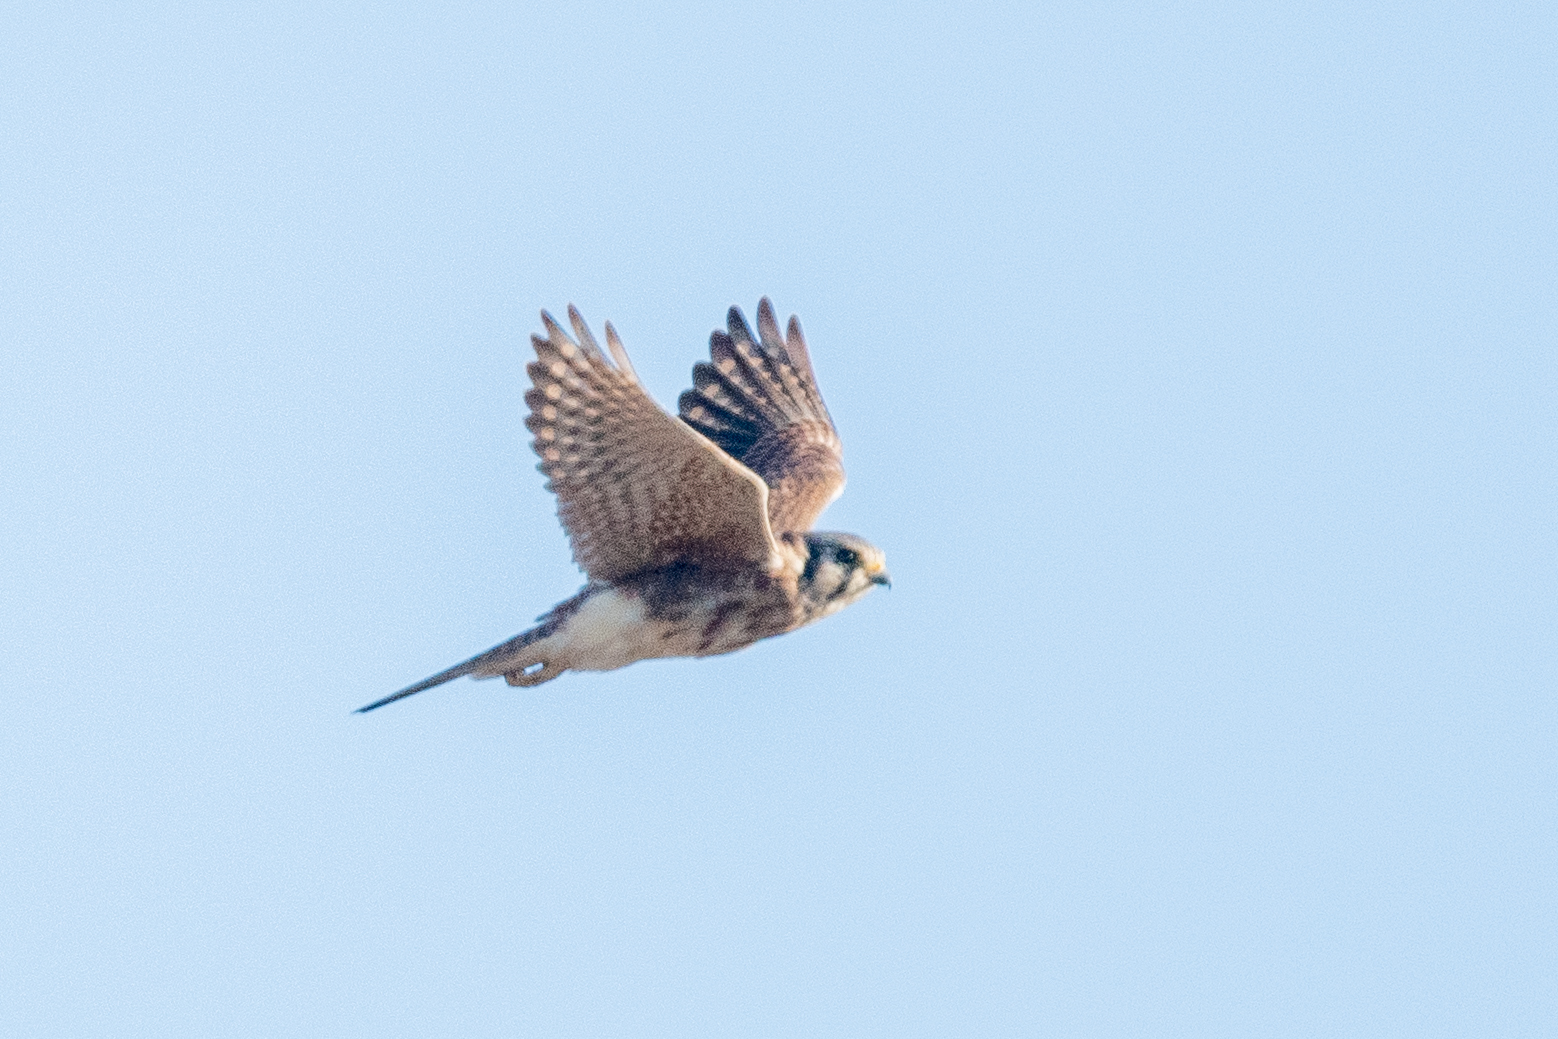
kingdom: Animalia
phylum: Chordata
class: Aves
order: Falconiformes
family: Falconidae
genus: Falco
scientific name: Falco sparverius
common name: American kestrel
